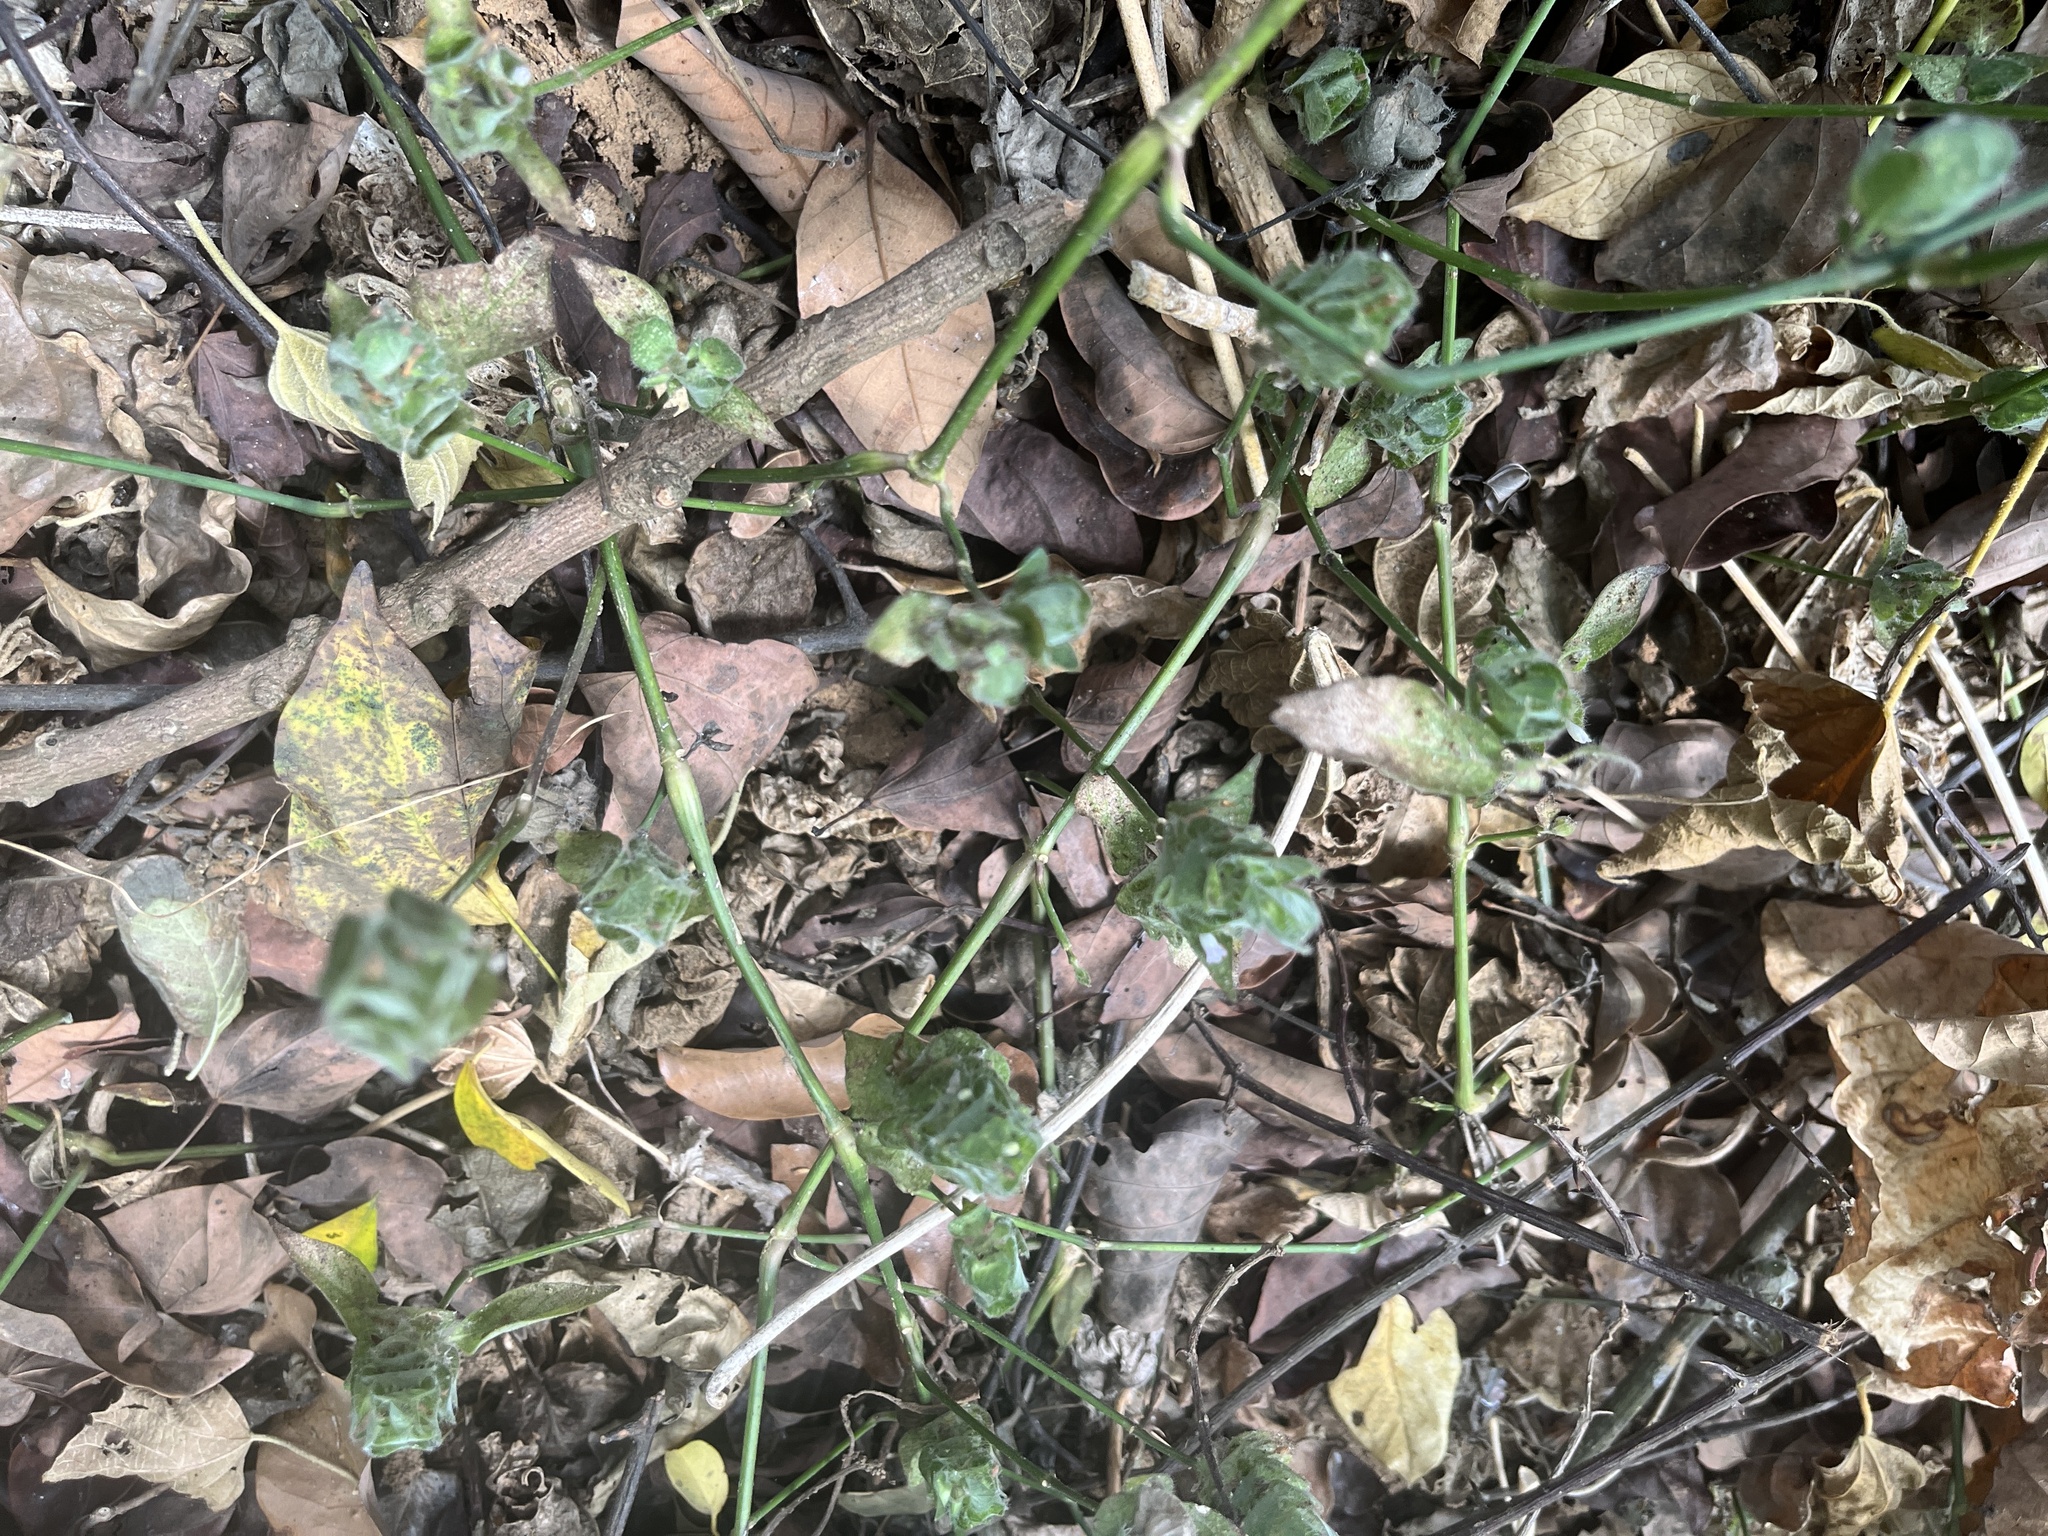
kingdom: Plantae
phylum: Tracheophyta
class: Magnoliopsida
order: Lamiales
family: Acanthaceae
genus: Ruellia
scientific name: Ruellia blechum
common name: Browne's blechum
